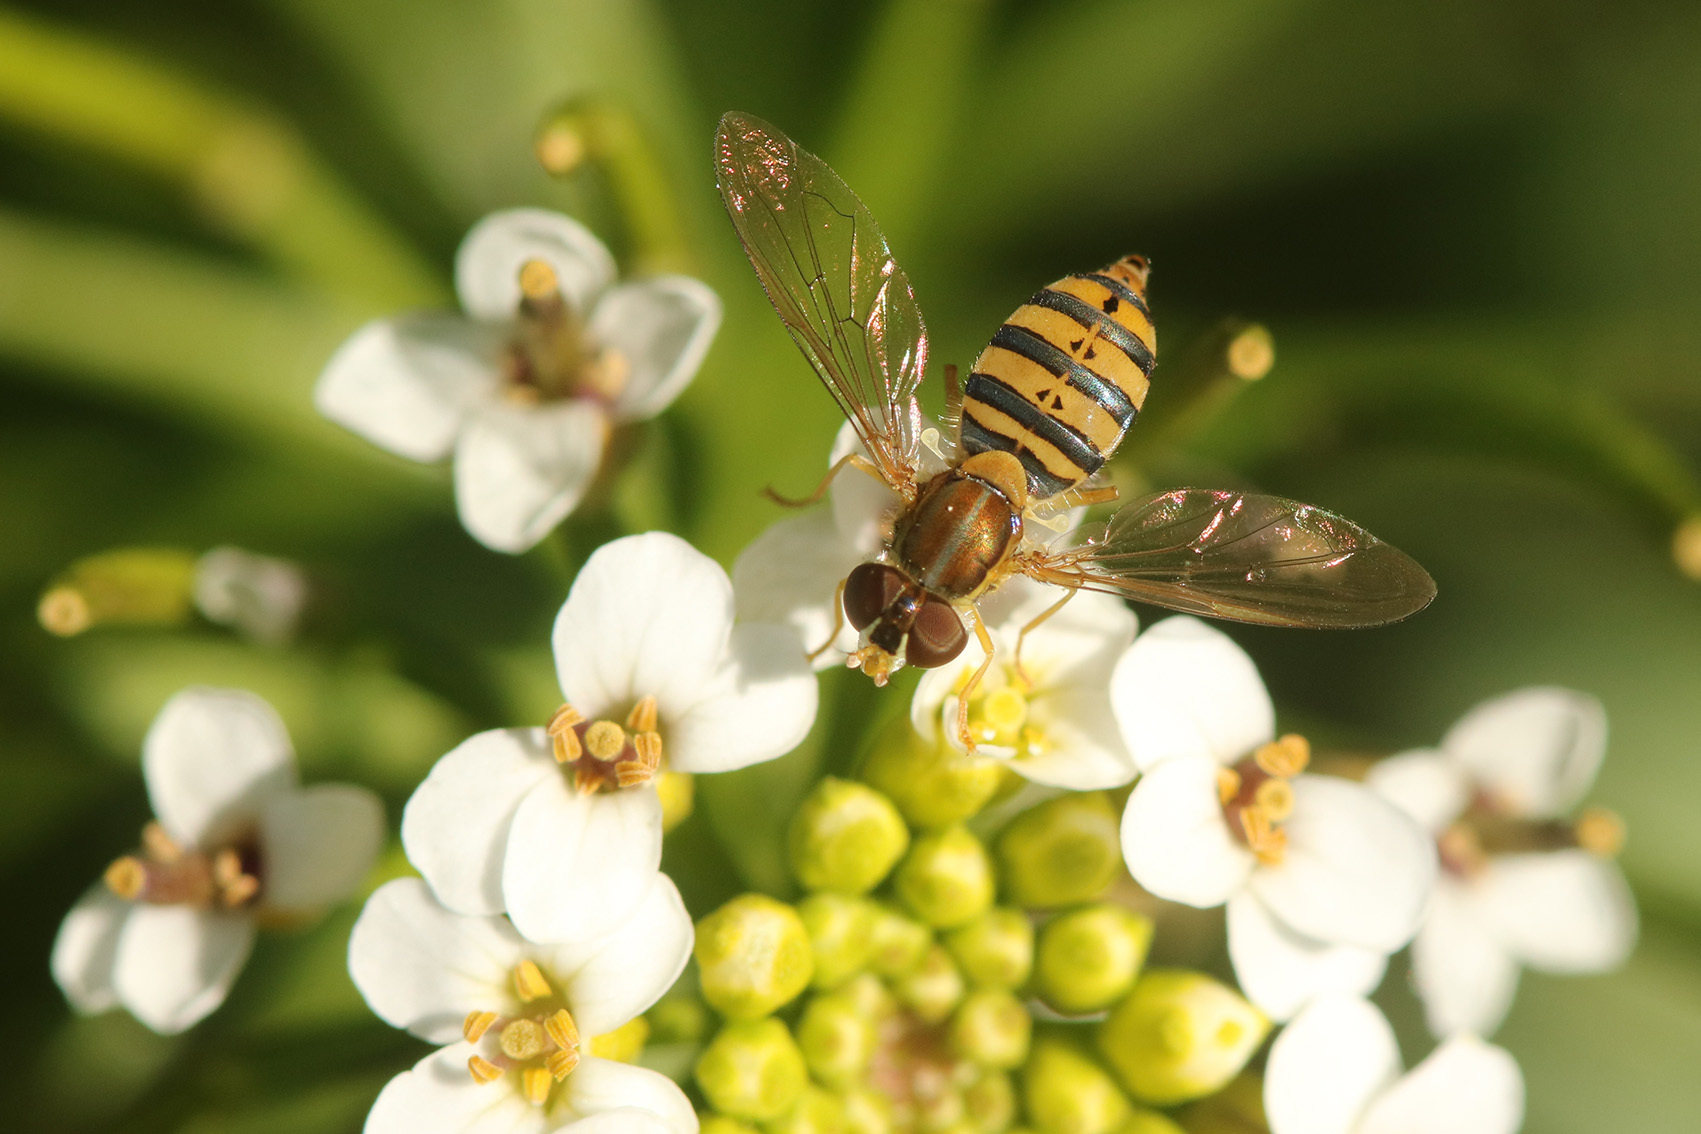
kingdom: Animalia
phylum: Arthropoda
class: Insecta
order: Diptera
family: Syrphidae
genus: Toxomerus
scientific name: Toxomerus
